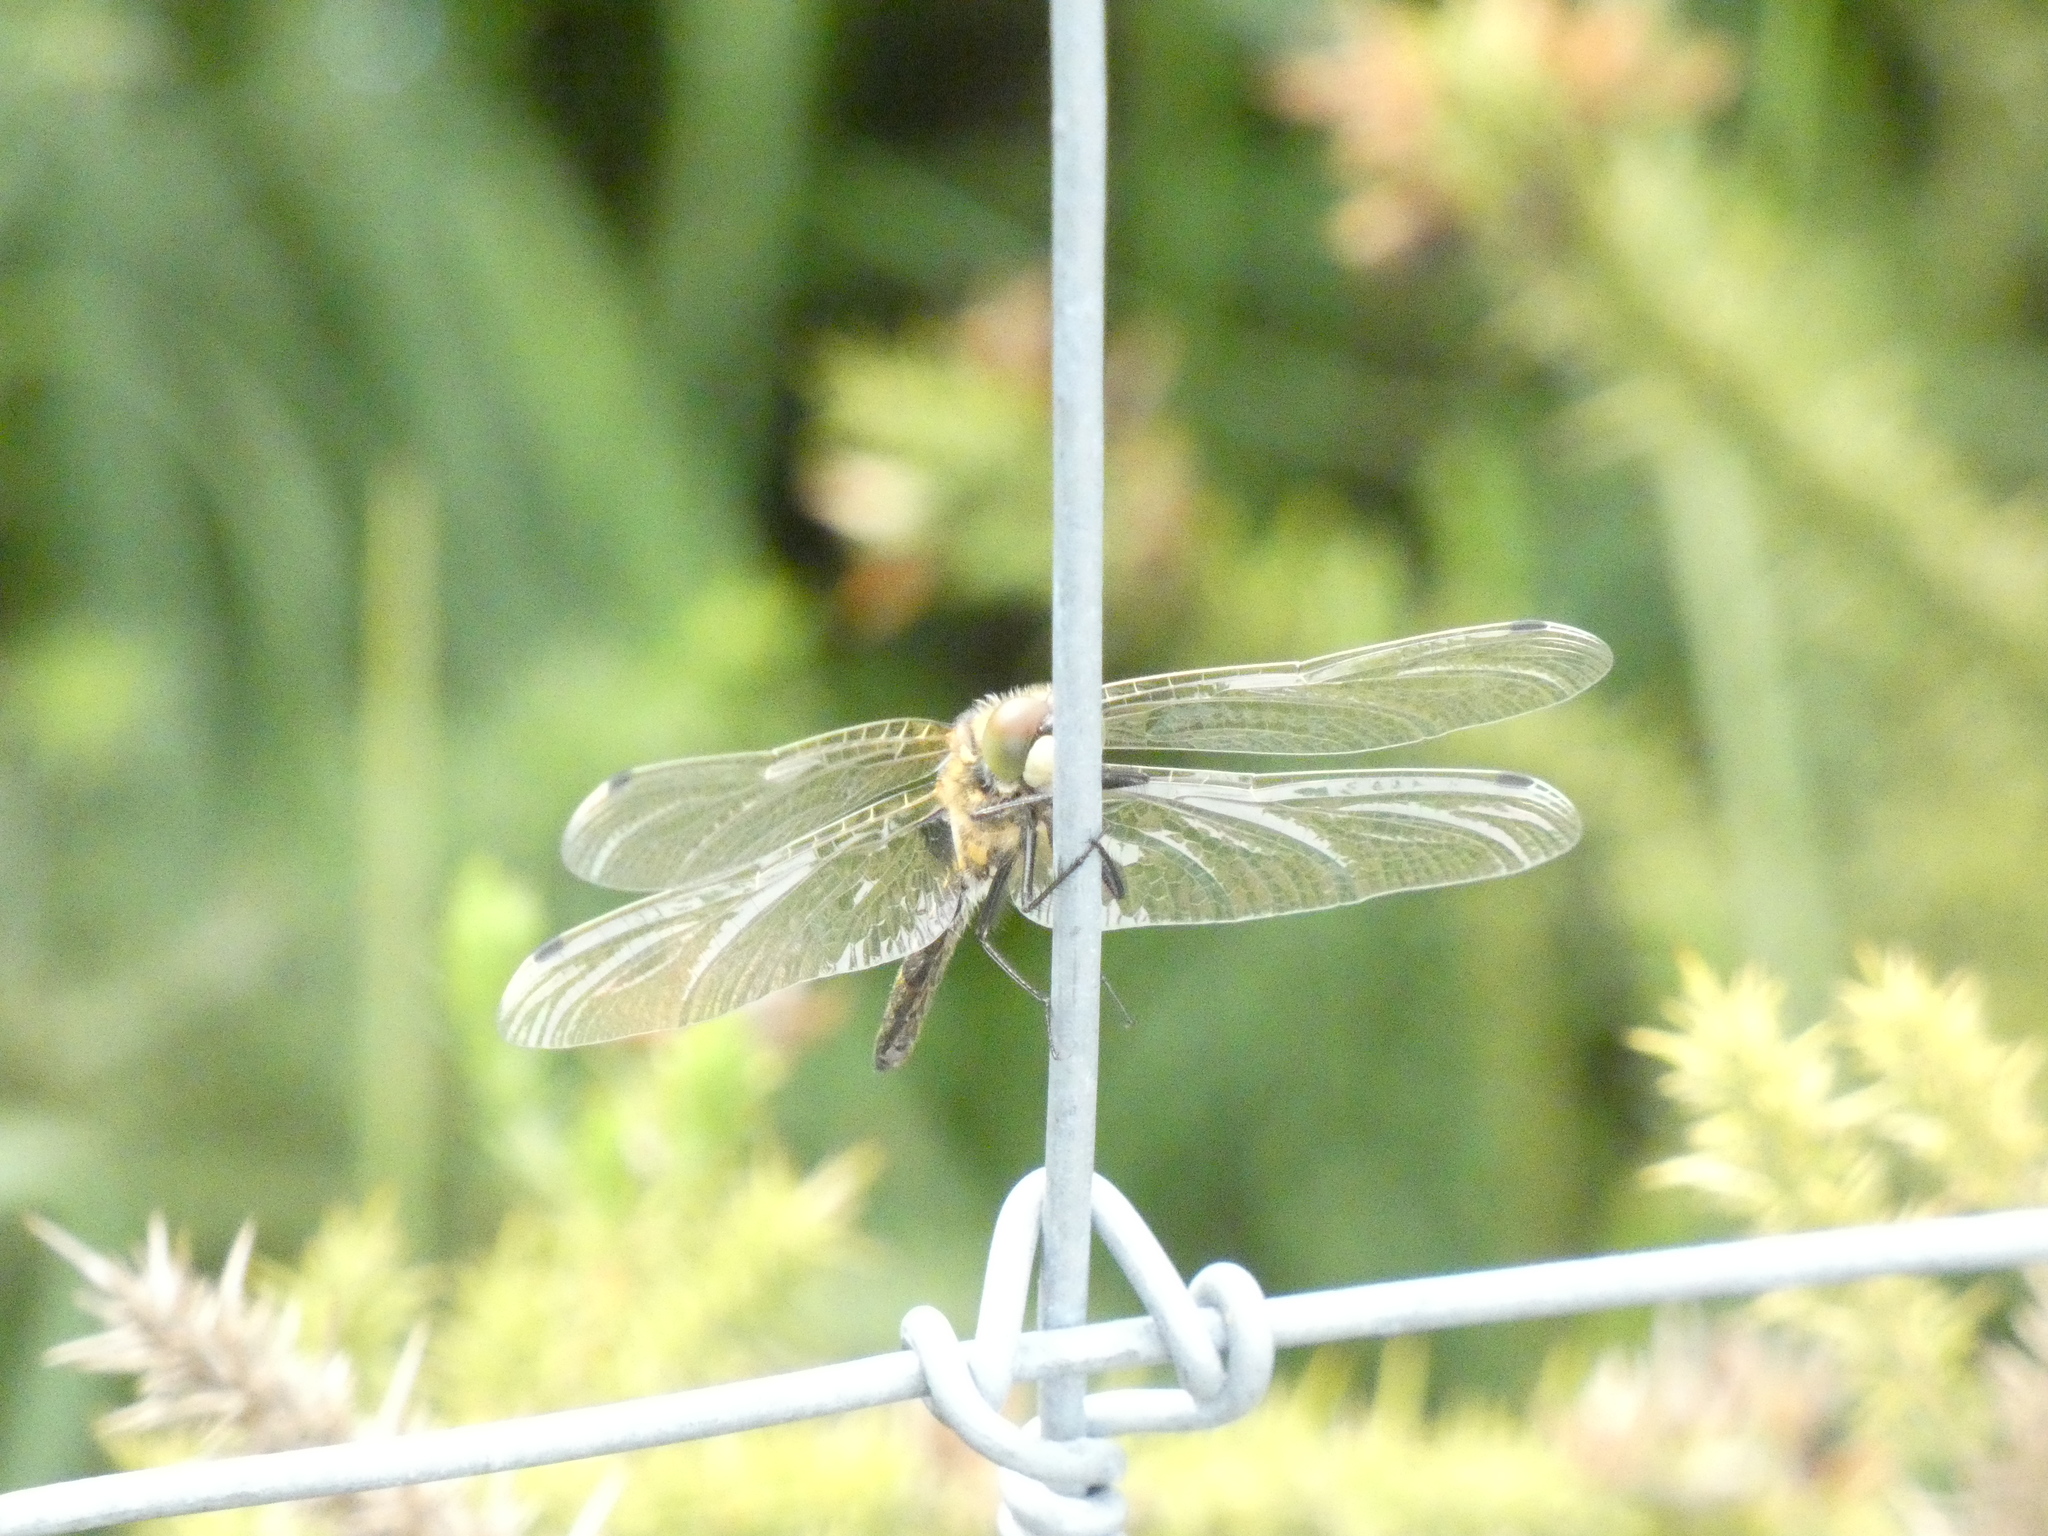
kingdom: Animalia
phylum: Arthropoda
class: Insecta
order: Odonata
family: Libellulidae
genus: Leucorrhinia
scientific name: Leucorrhinia pectoralis
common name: Yellow-spotted whiteface
